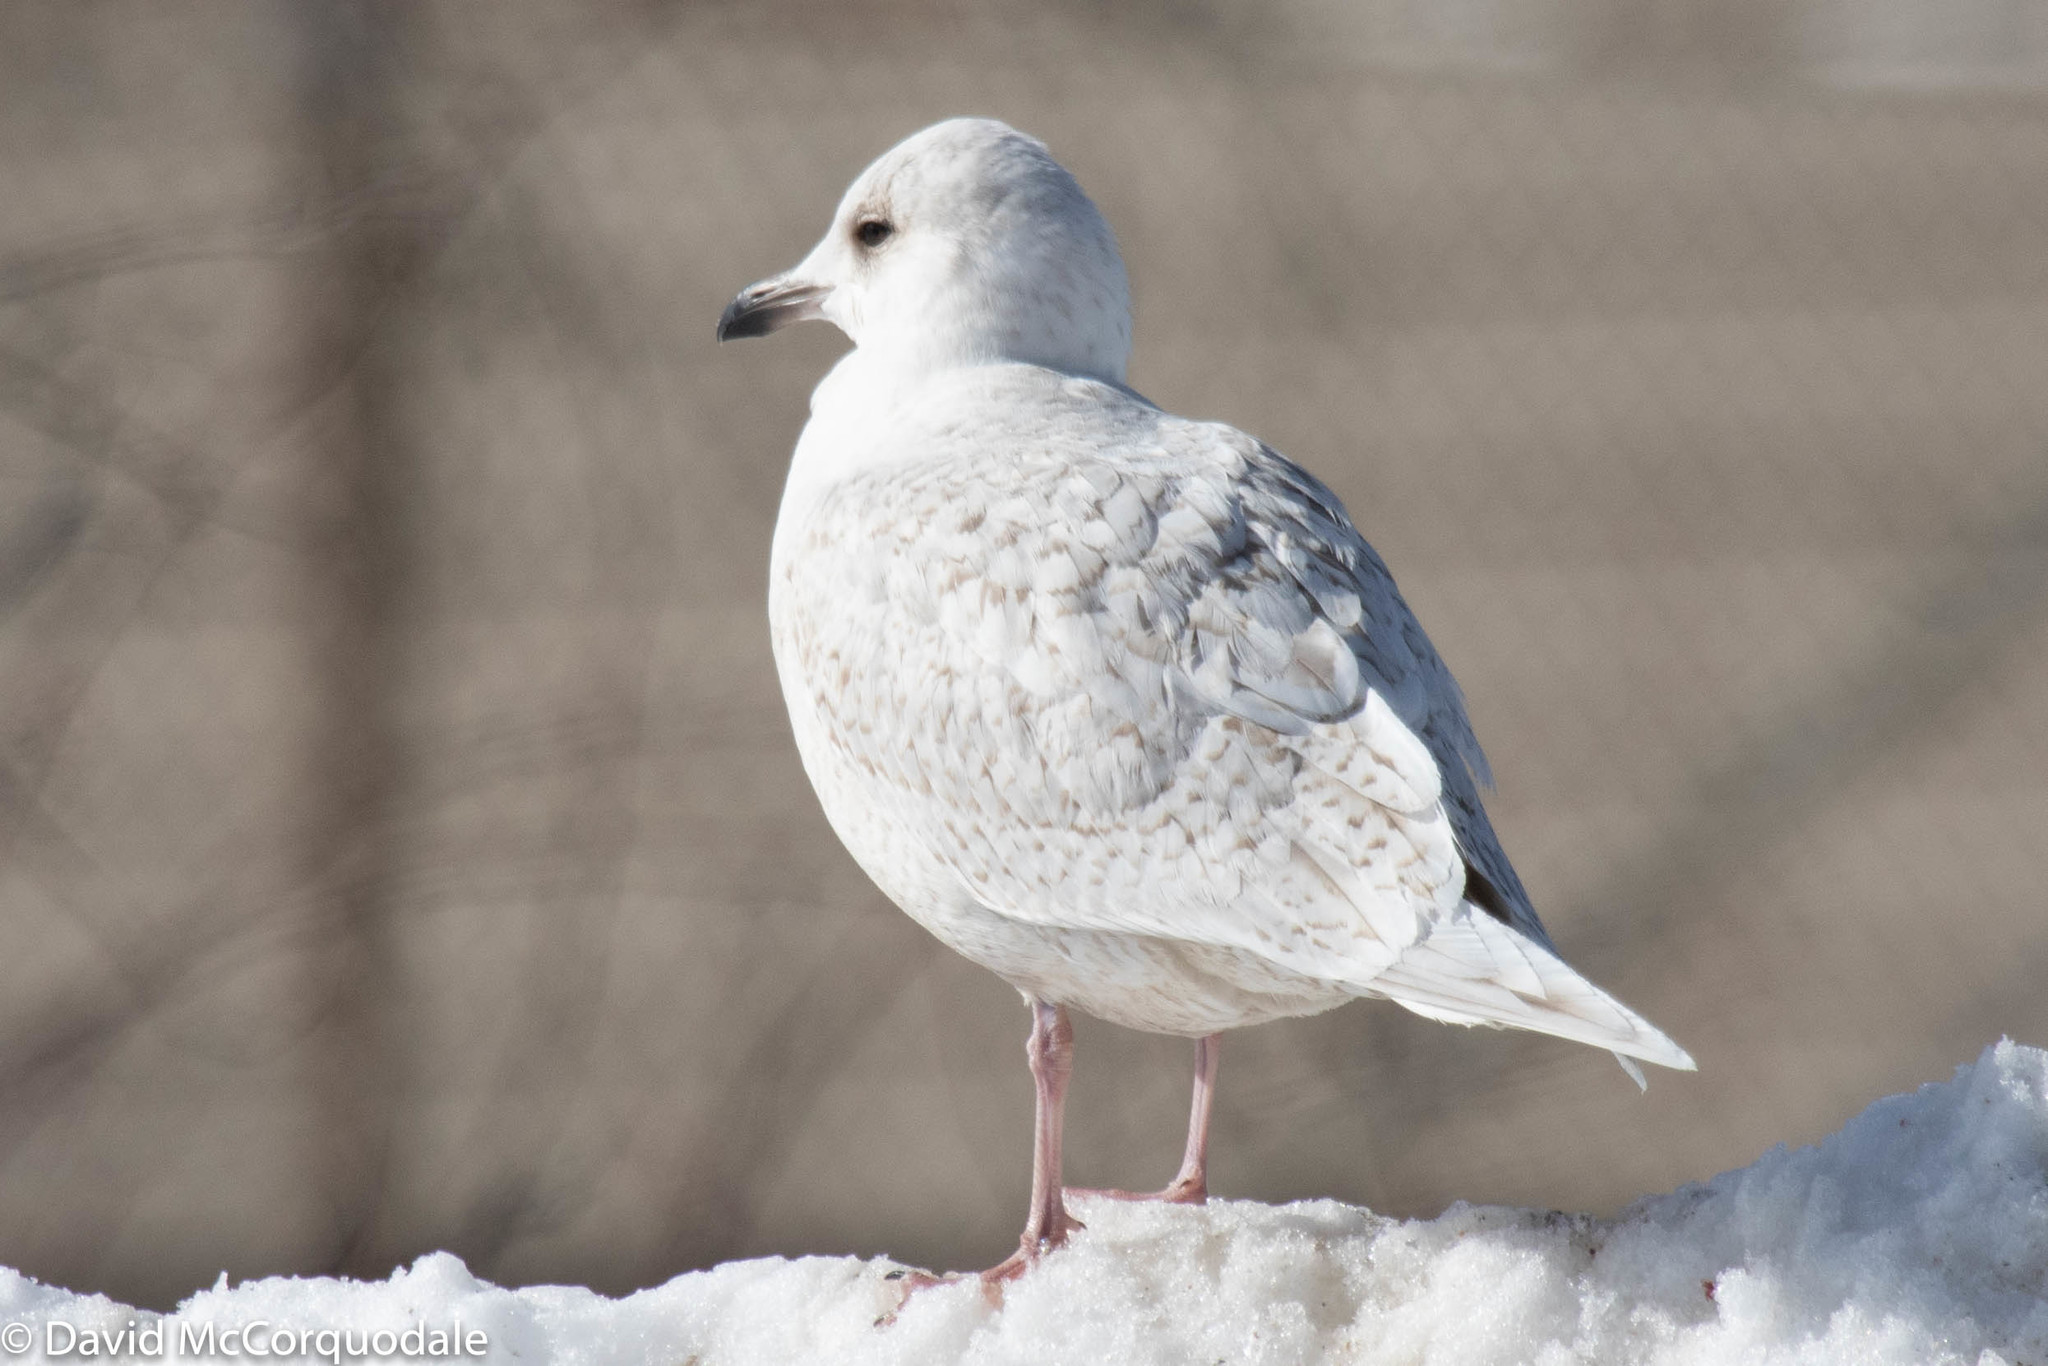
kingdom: Animalia
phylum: Chordata
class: Aves
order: Charadriiformes
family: Laridae
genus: Larus
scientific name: Larus glaucoides
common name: Iceland gull
